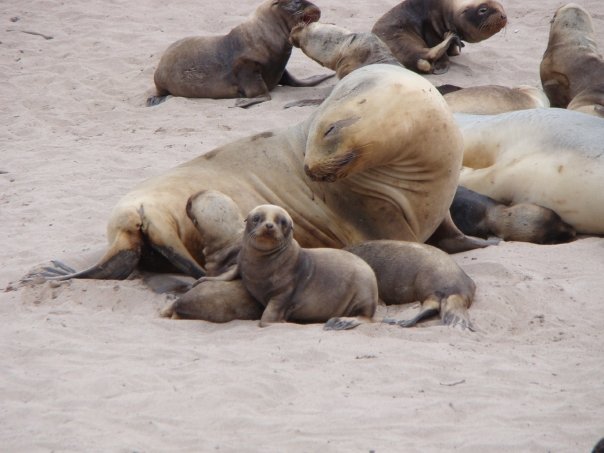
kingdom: Animalia
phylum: Chordata
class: Mammalia
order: Carnivora
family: Otariidae
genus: Phocarctos
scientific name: Phocarctos hookeri
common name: New zealand sea lion
